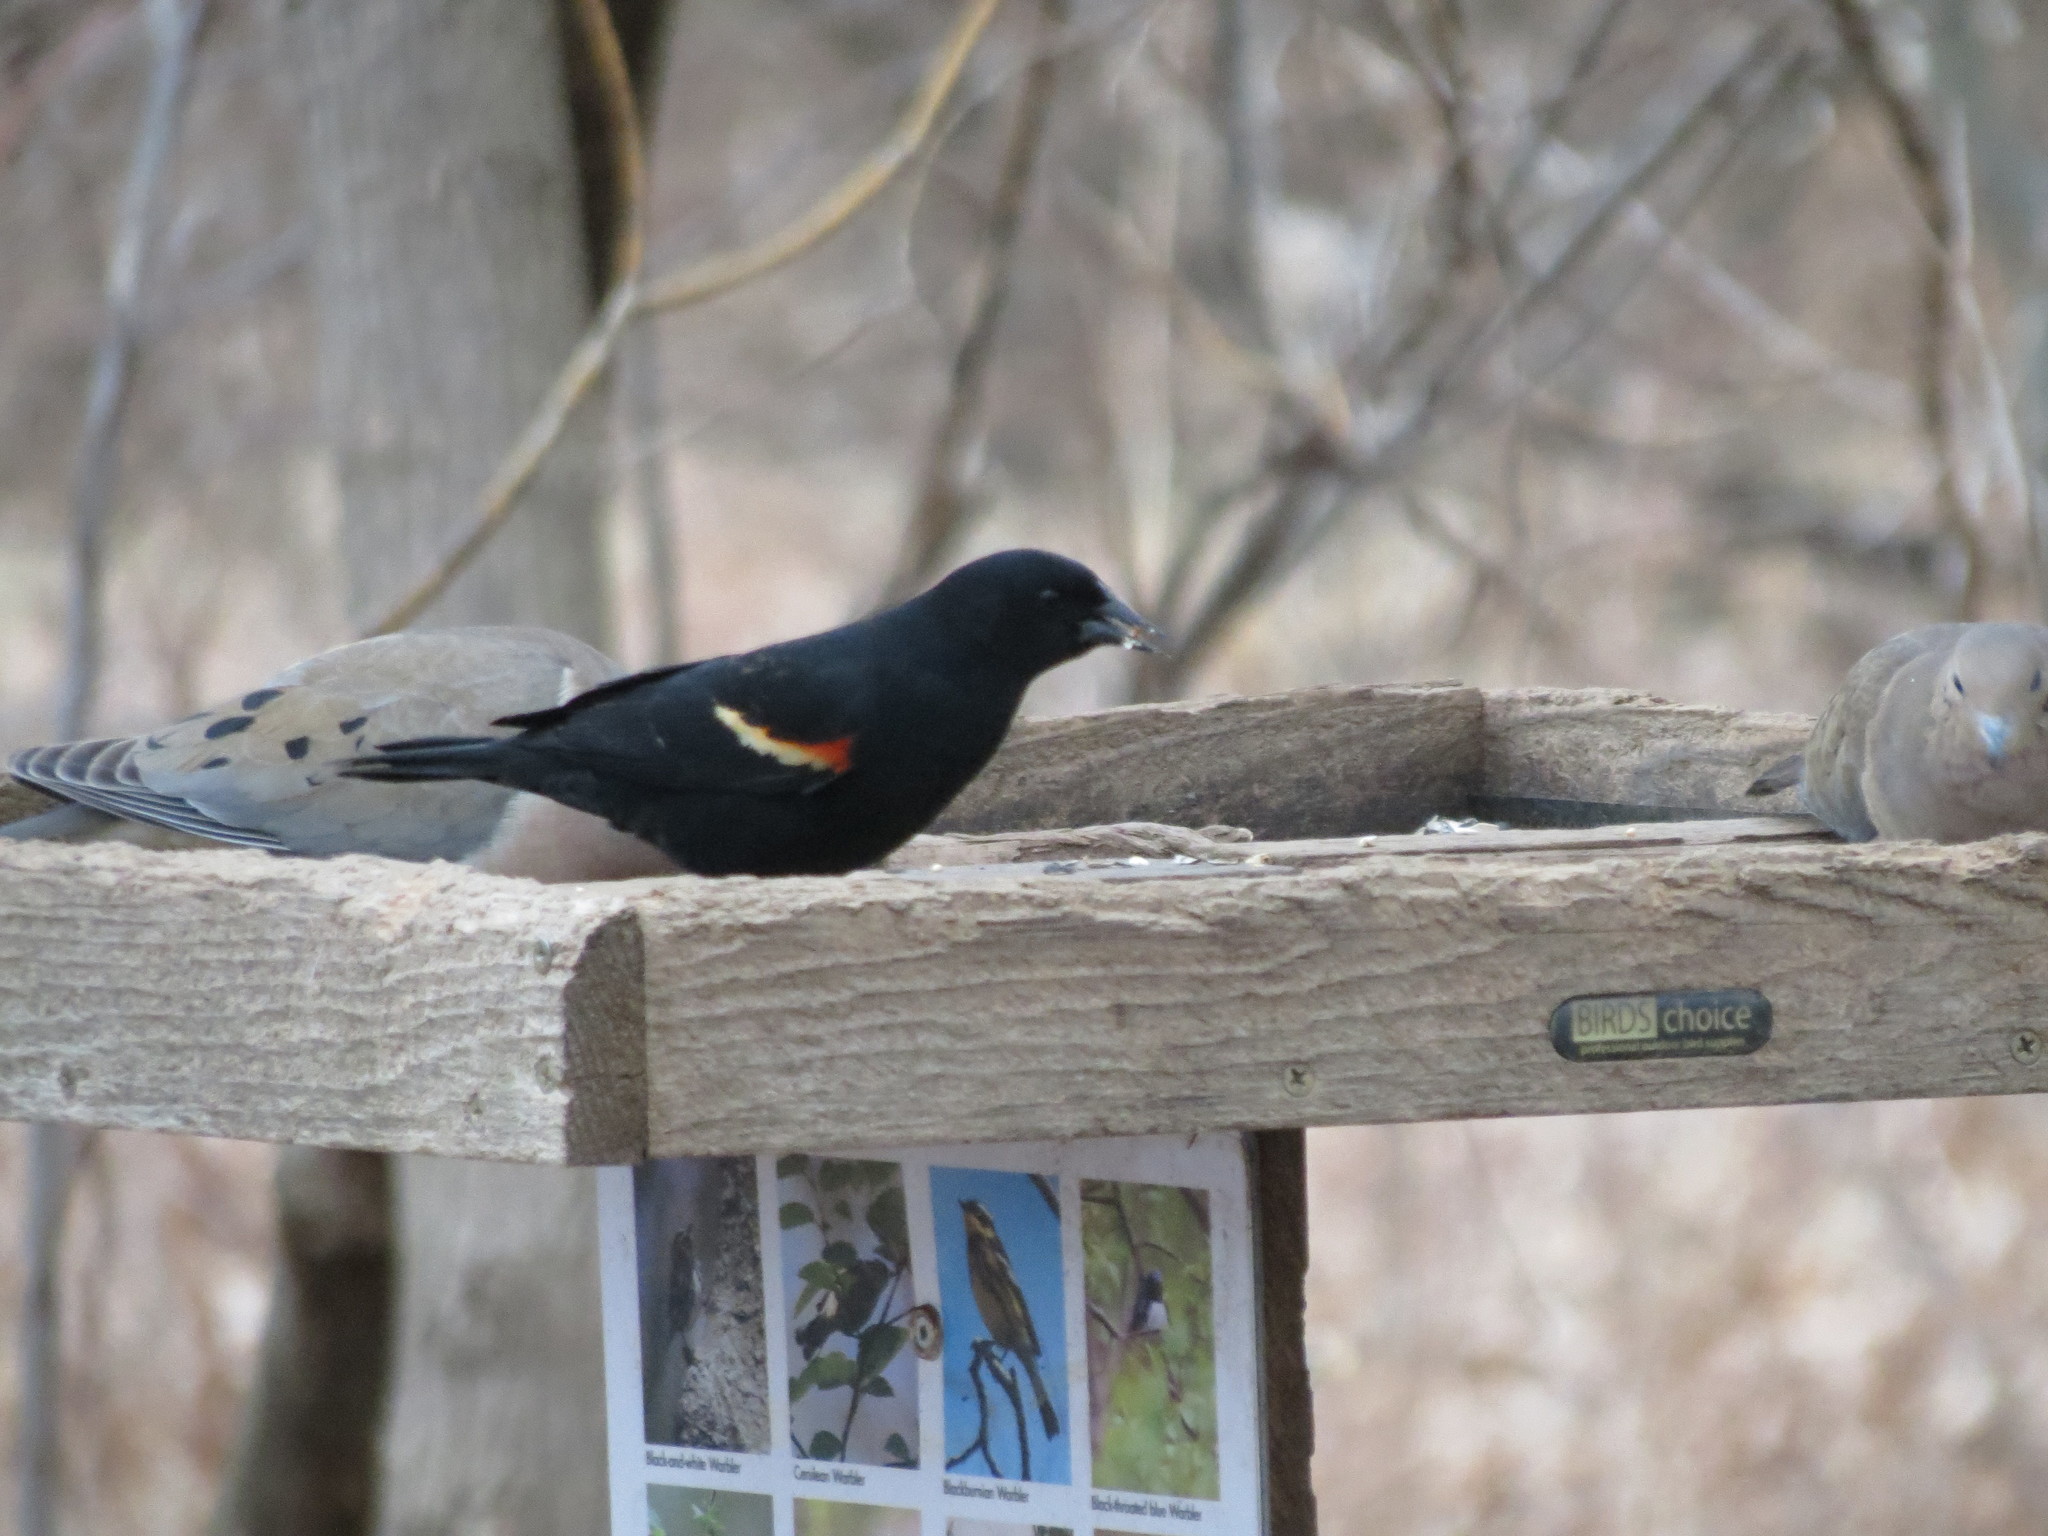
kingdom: Animalia
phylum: Chordata
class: Aves
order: Passeriformes
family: Icteridae
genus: Agelaius
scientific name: Agelaius phoeniceus
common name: Red-winged blackbird
